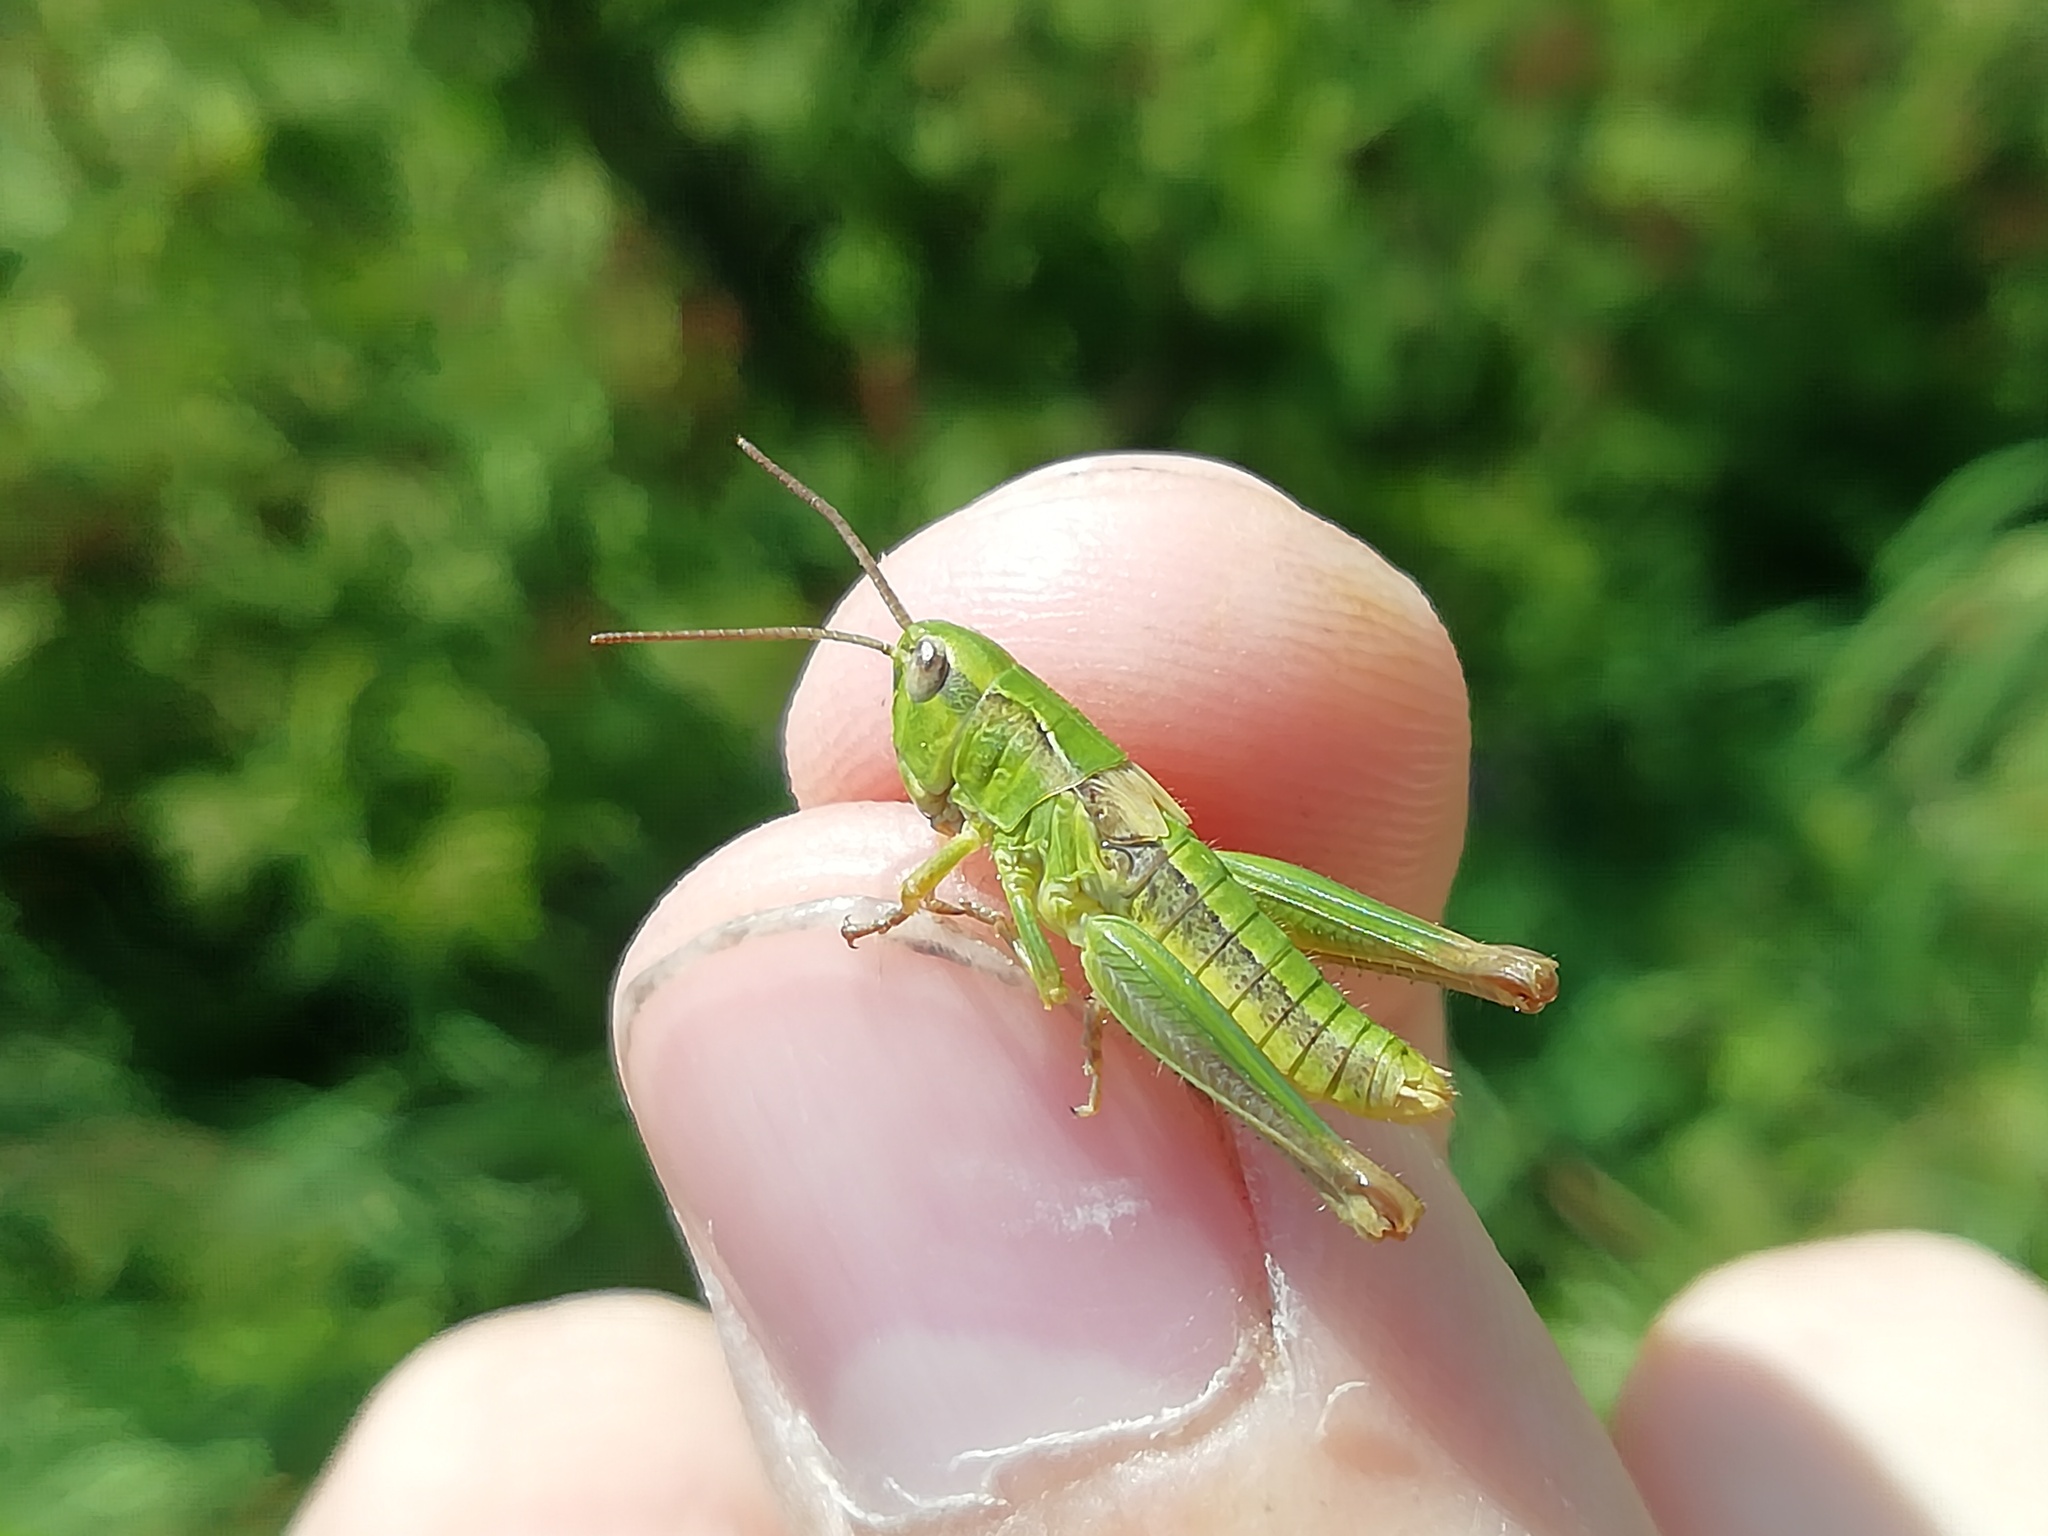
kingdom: Animalia
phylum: Arthropoda
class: Insecta
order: Orthoptera
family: Acrididae
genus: Chorthippus
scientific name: Chorthippus fallax
